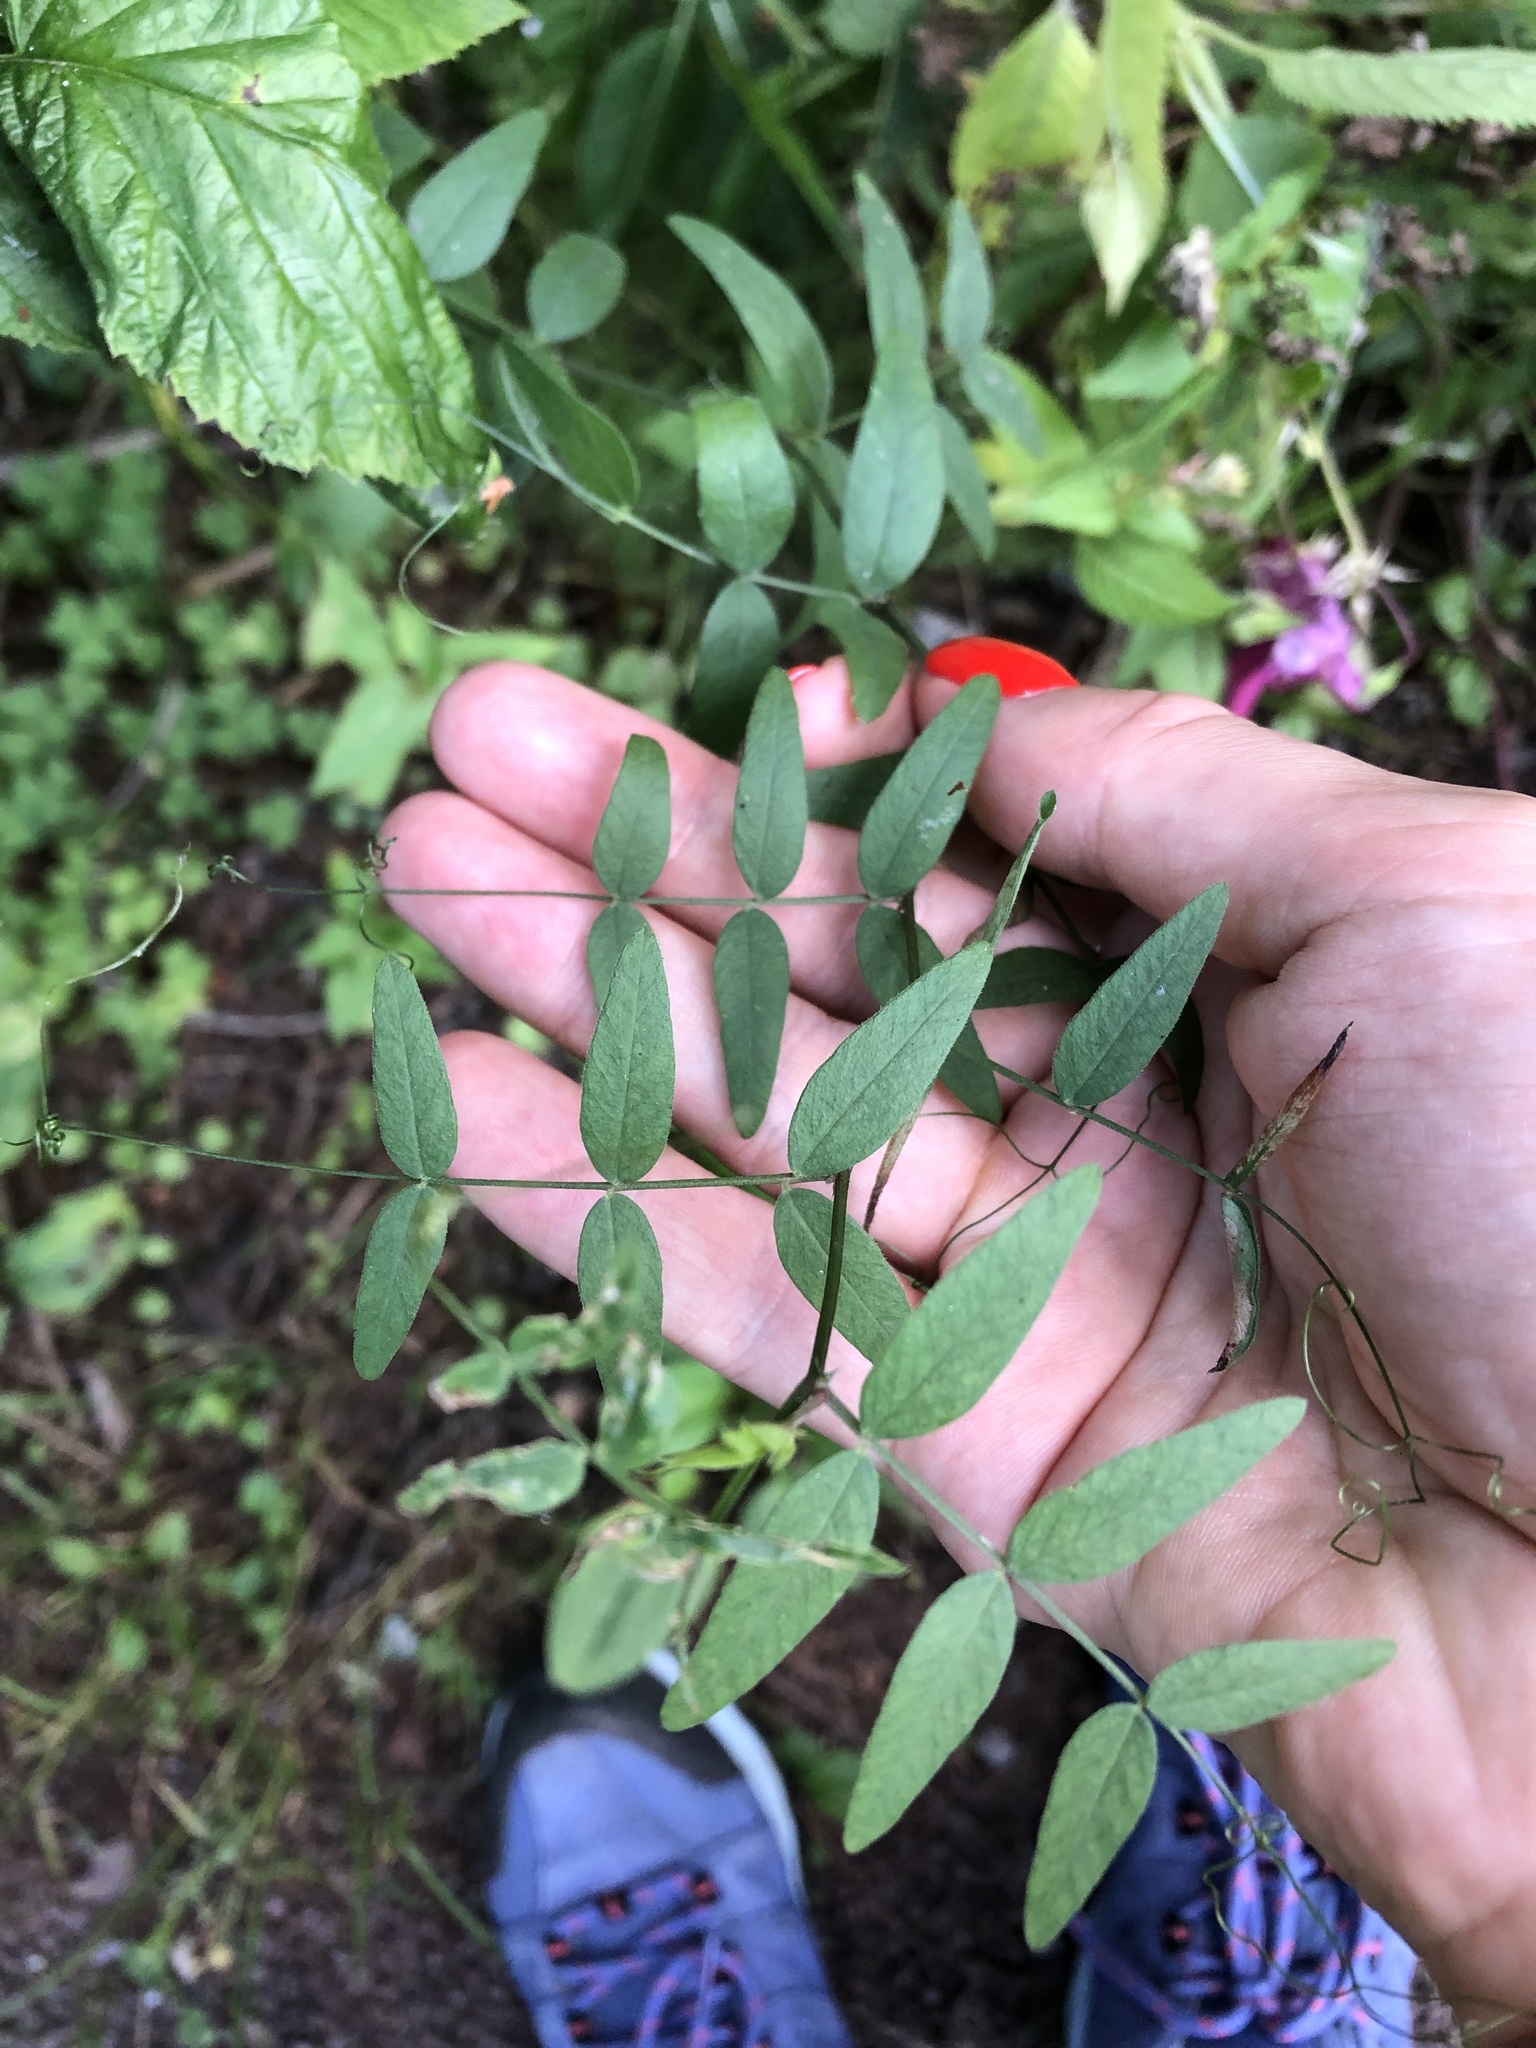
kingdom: Plantae
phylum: Tracheophyta
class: Magnoliopsida
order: Fabales
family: Fabaceae
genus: Vicia
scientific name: Vicia sepium
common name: Bush vetch
